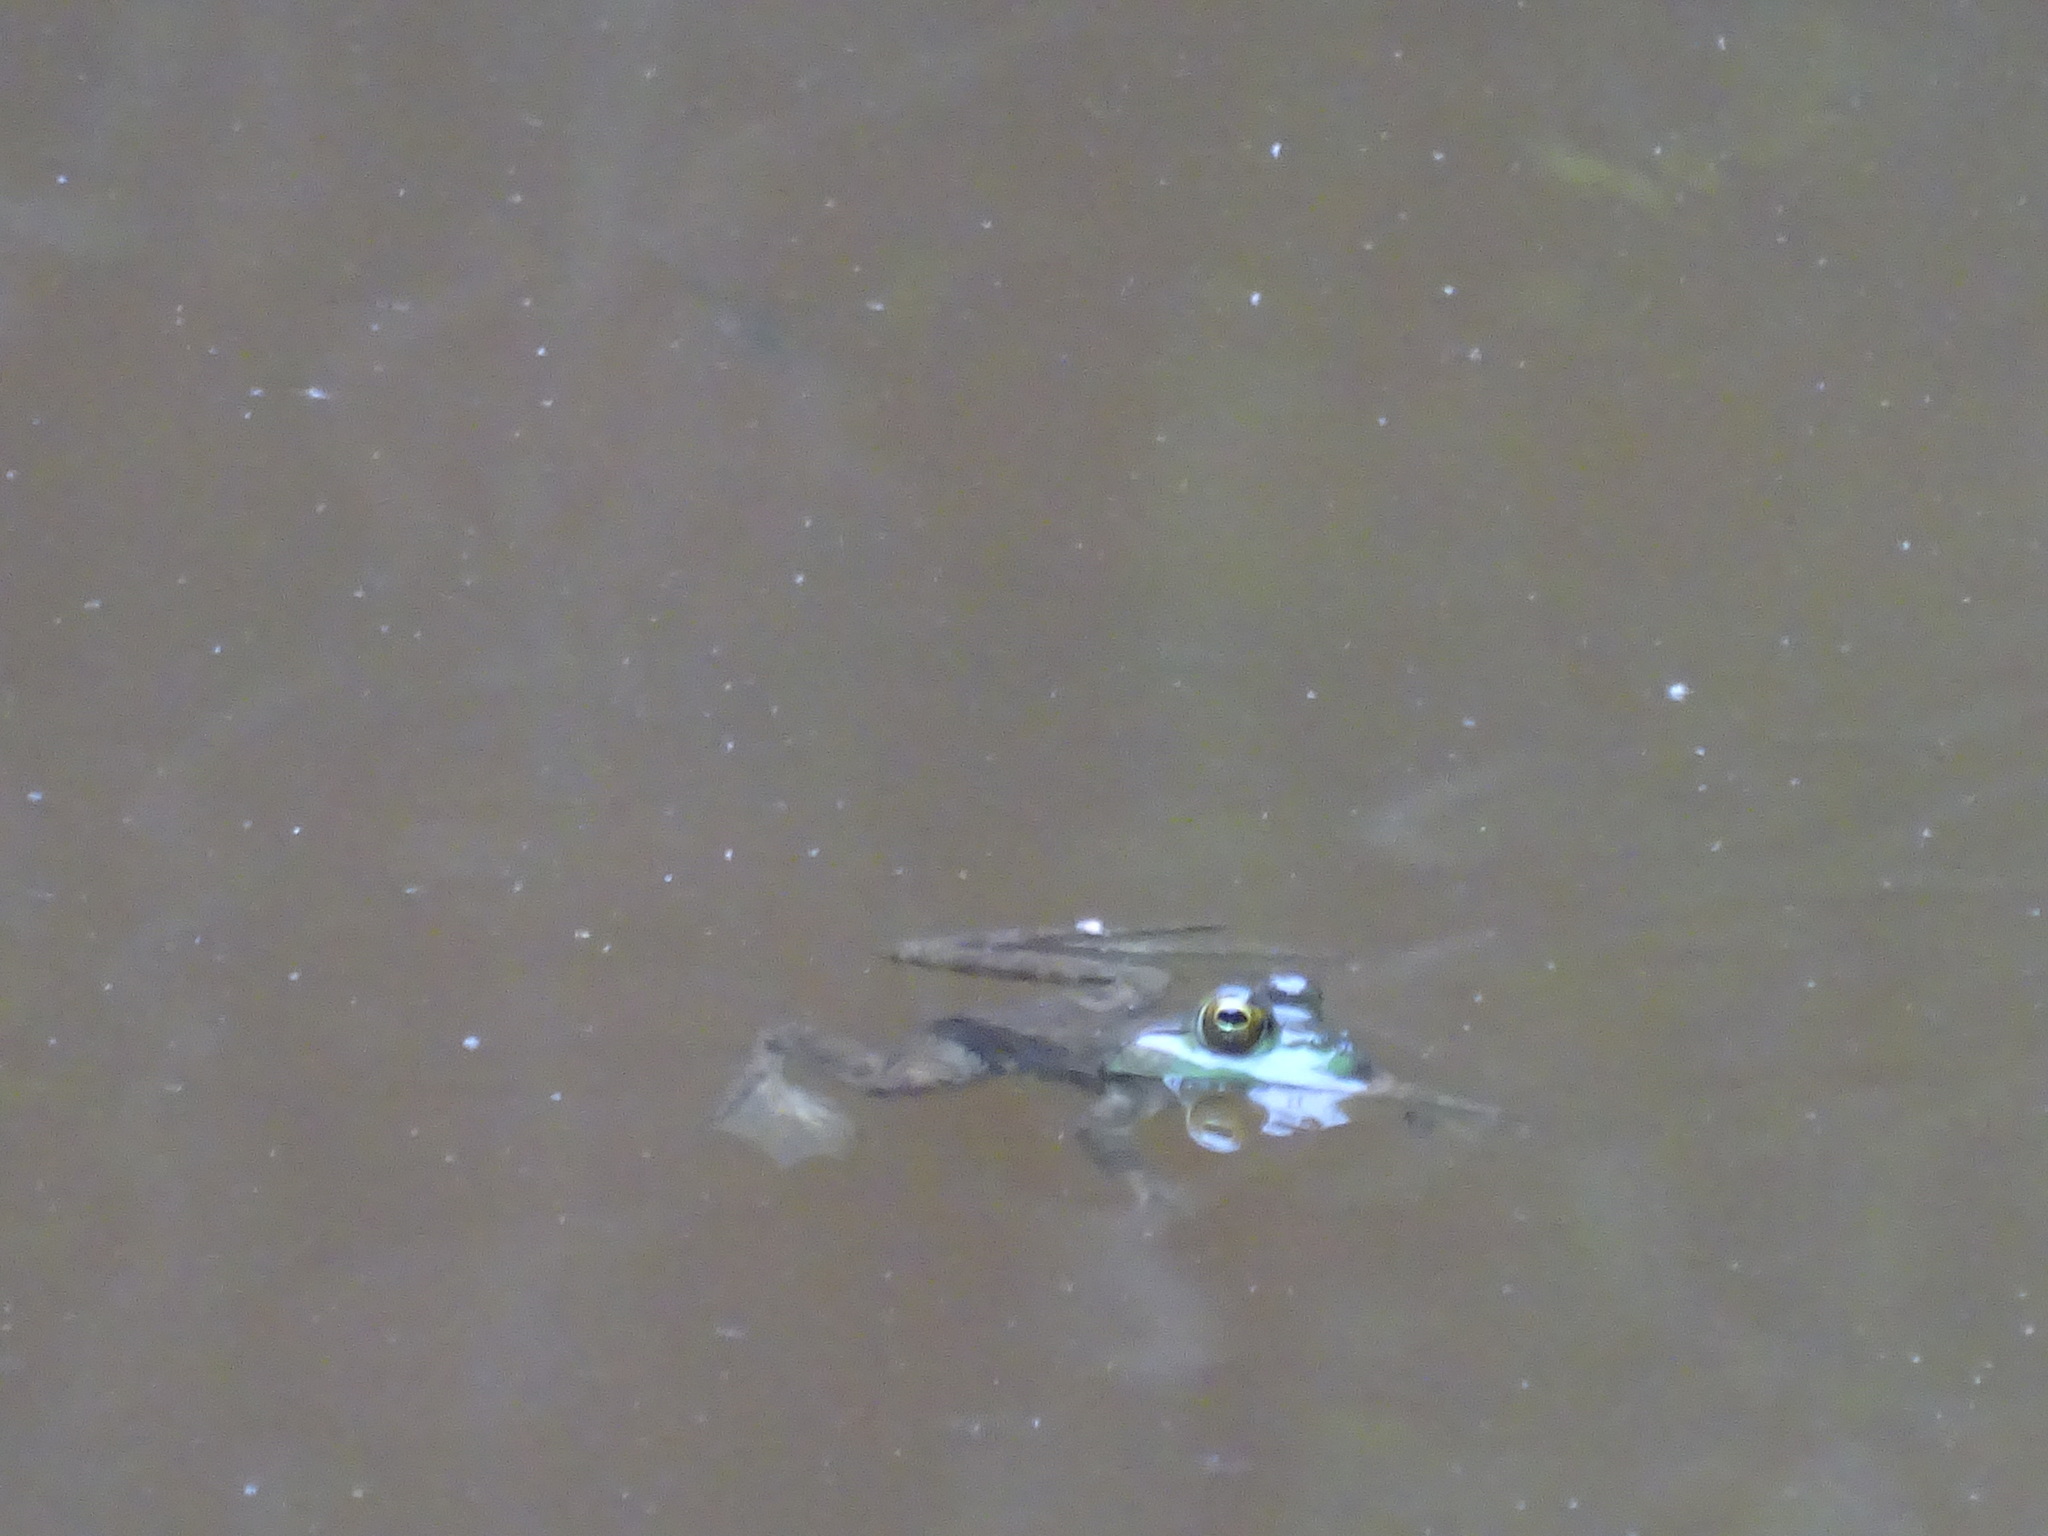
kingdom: Animalia
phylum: Chordata
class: Amphibia
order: Anura
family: Ranidae
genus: Lithobates
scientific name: Lithobates catesbeianus
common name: American bullfrog
